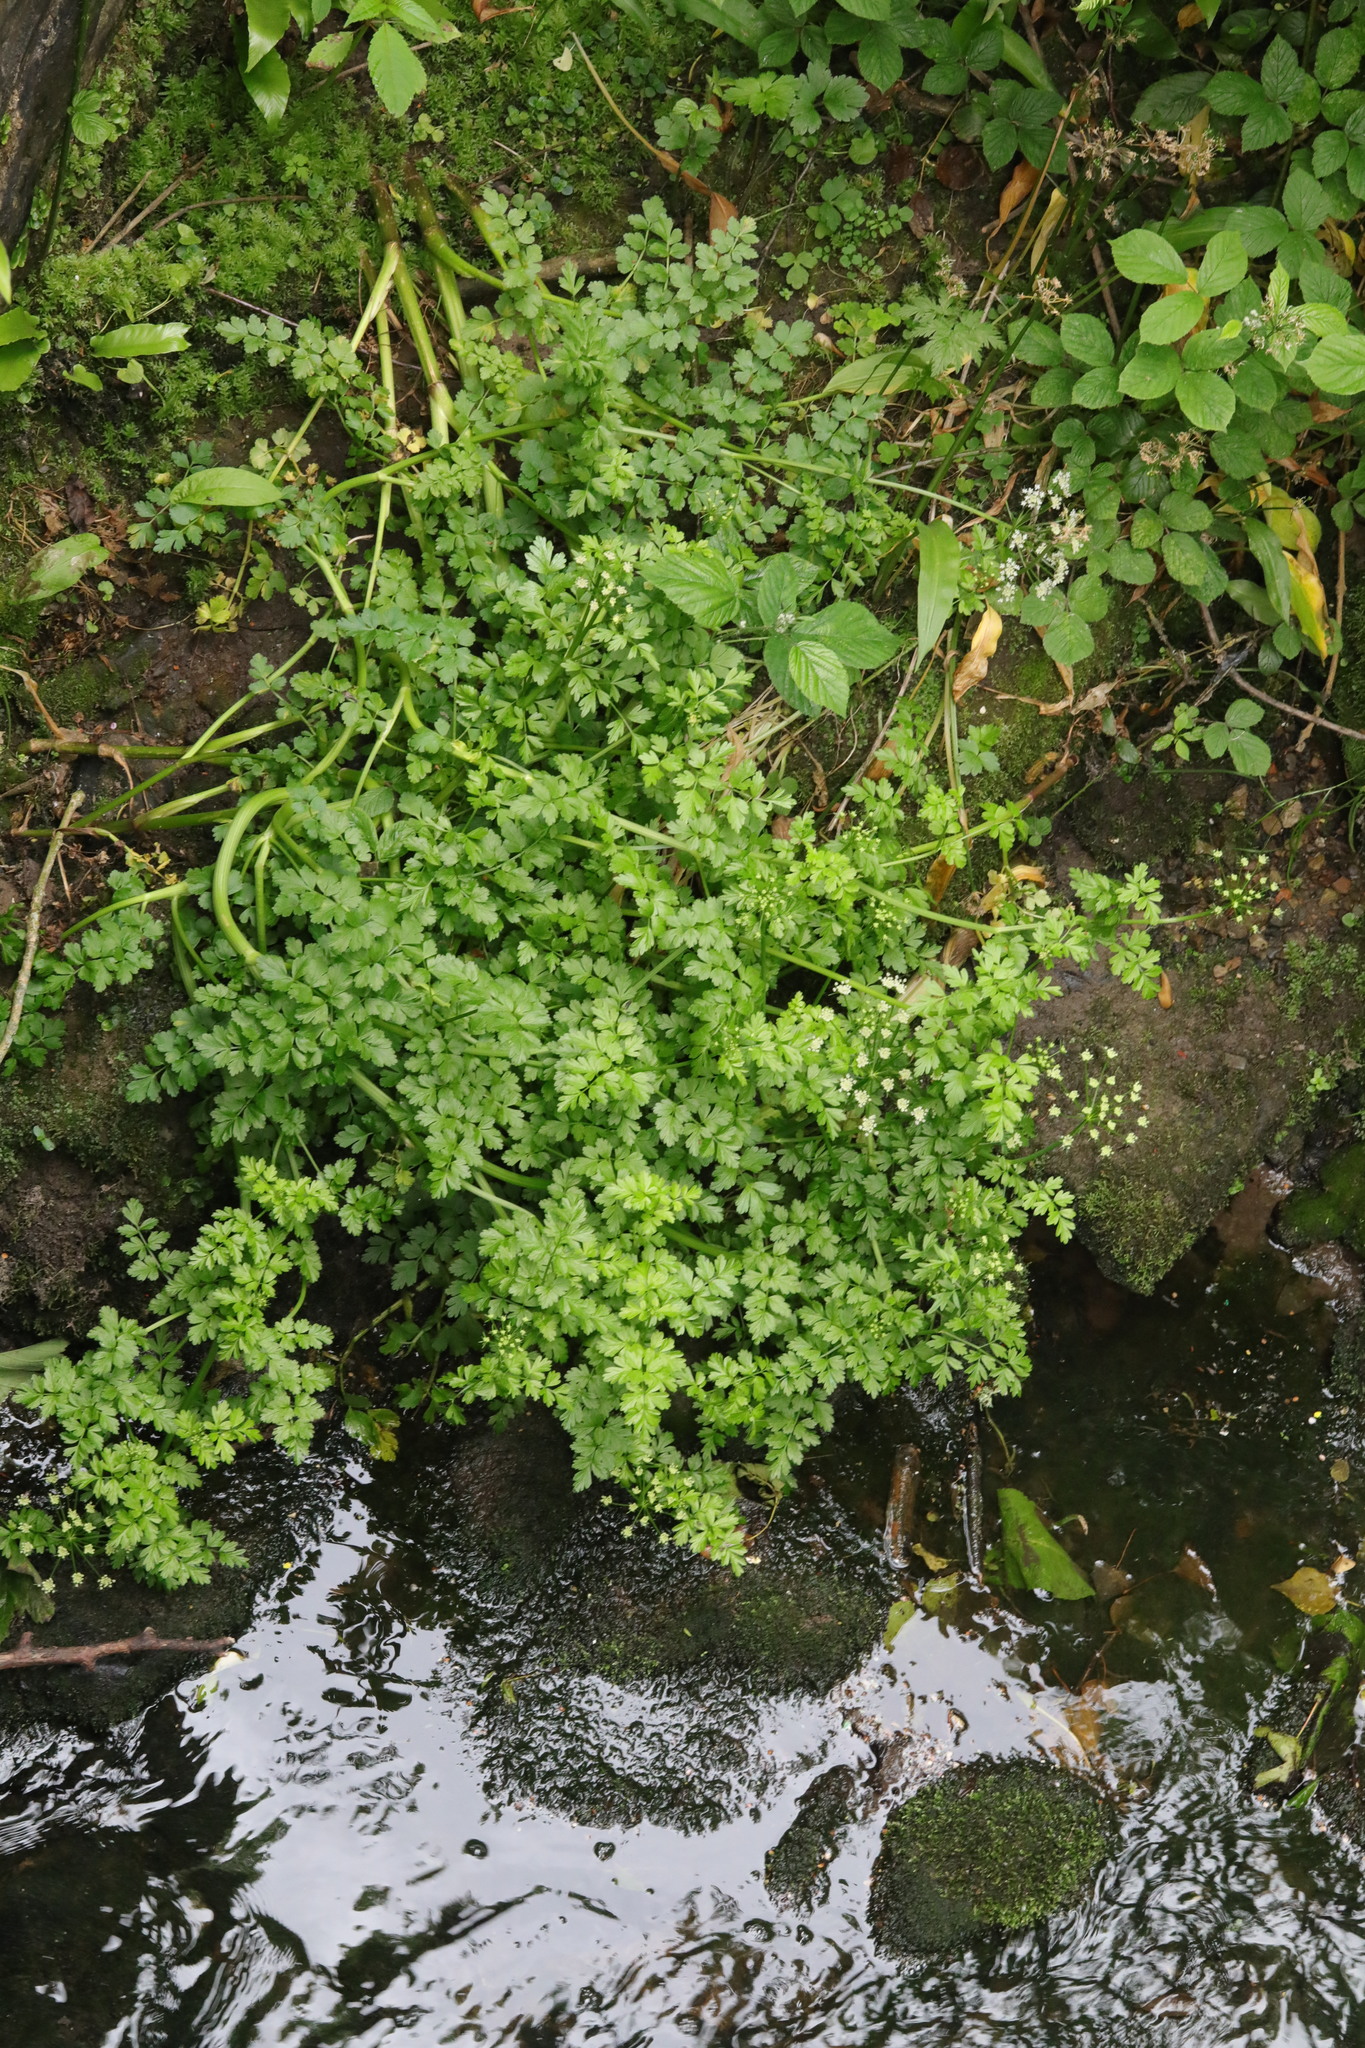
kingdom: Plantae
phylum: Tracheophyta
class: Magnoliopsida
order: Apiales
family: Apiaceae
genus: Oenanthe
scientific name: Oenanthe crocata
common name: Hemlock water-dropwort
